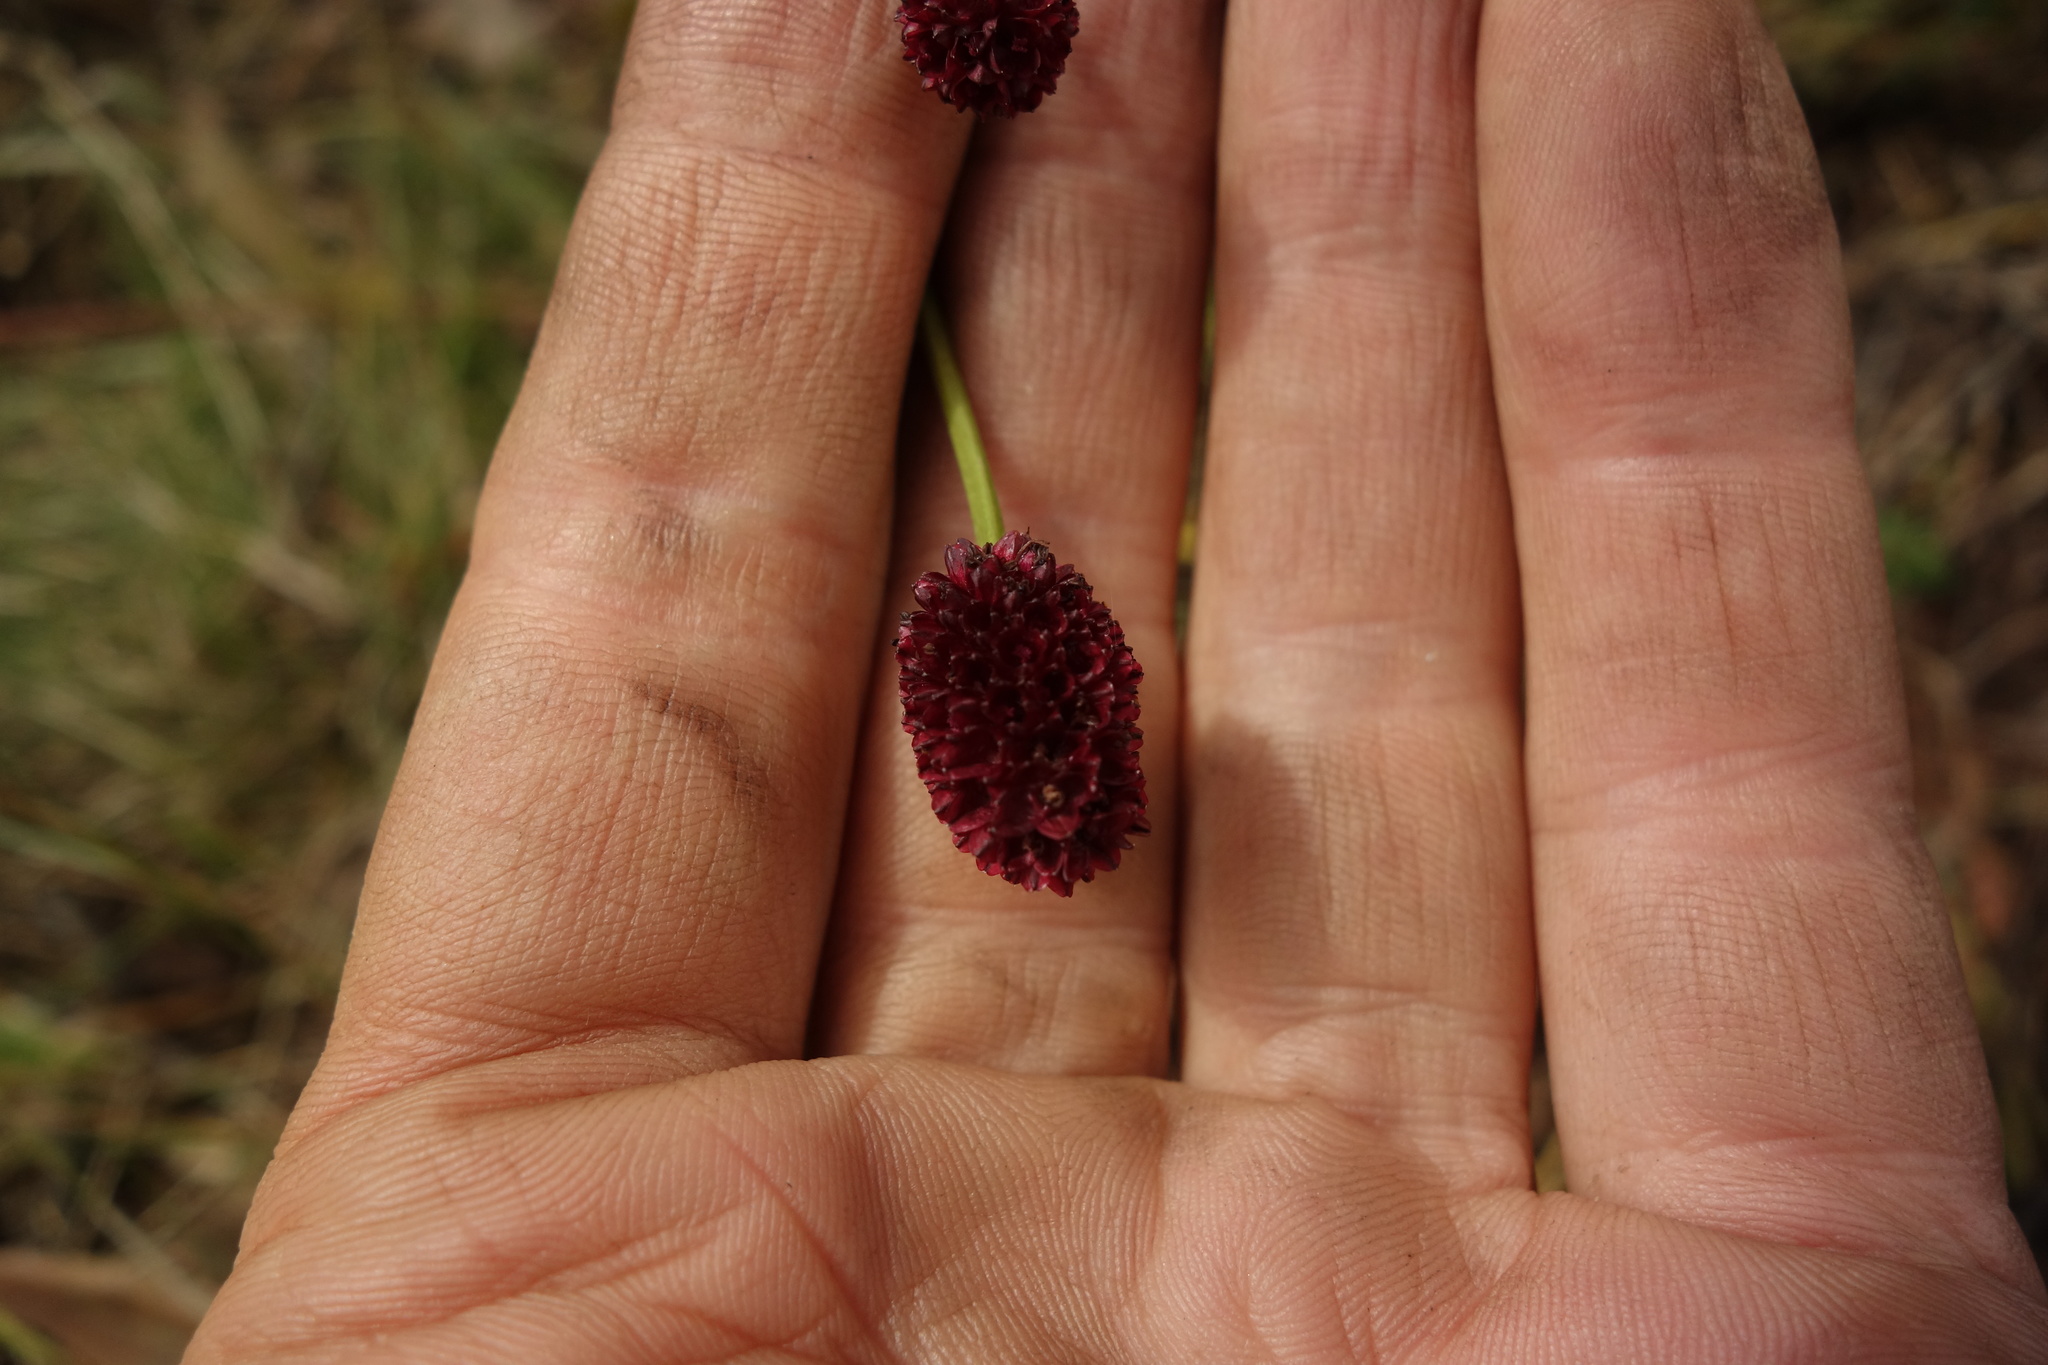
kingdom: Plantae
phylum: Tracheophyta
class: Magnoliopsida
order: Rosales
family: Rosaceae
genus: Sanguisorba
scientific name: Sanguisorba officinalis
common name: Great burnet
